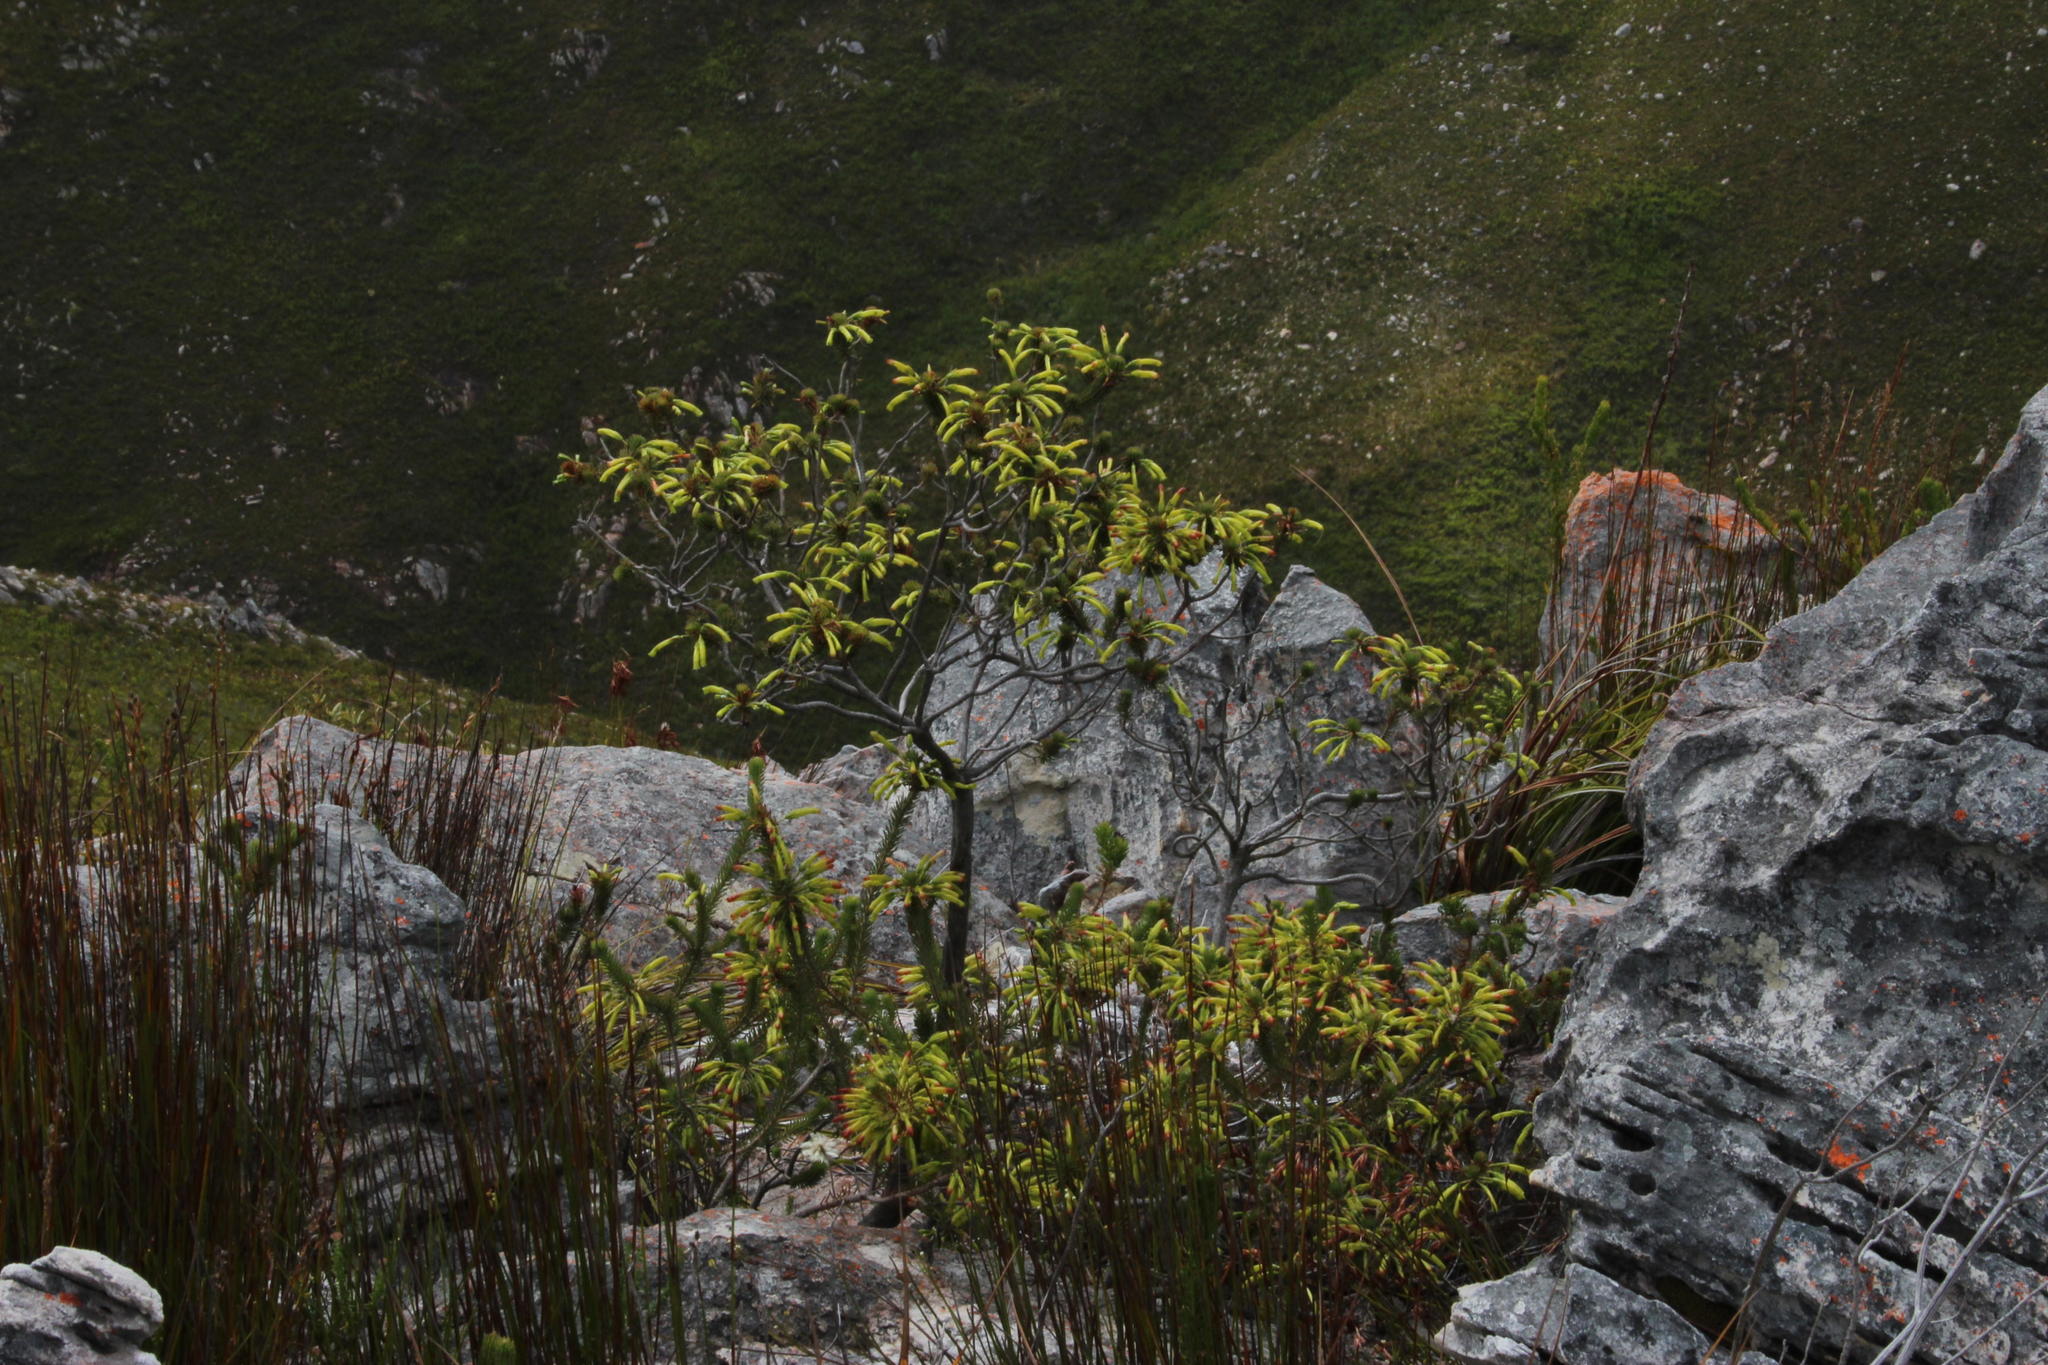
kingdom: Plantae
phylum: Tracheophyta
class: Magnoliopsida
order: Ericales
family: Ericaceae
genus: Erica
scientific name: Erica thomae
